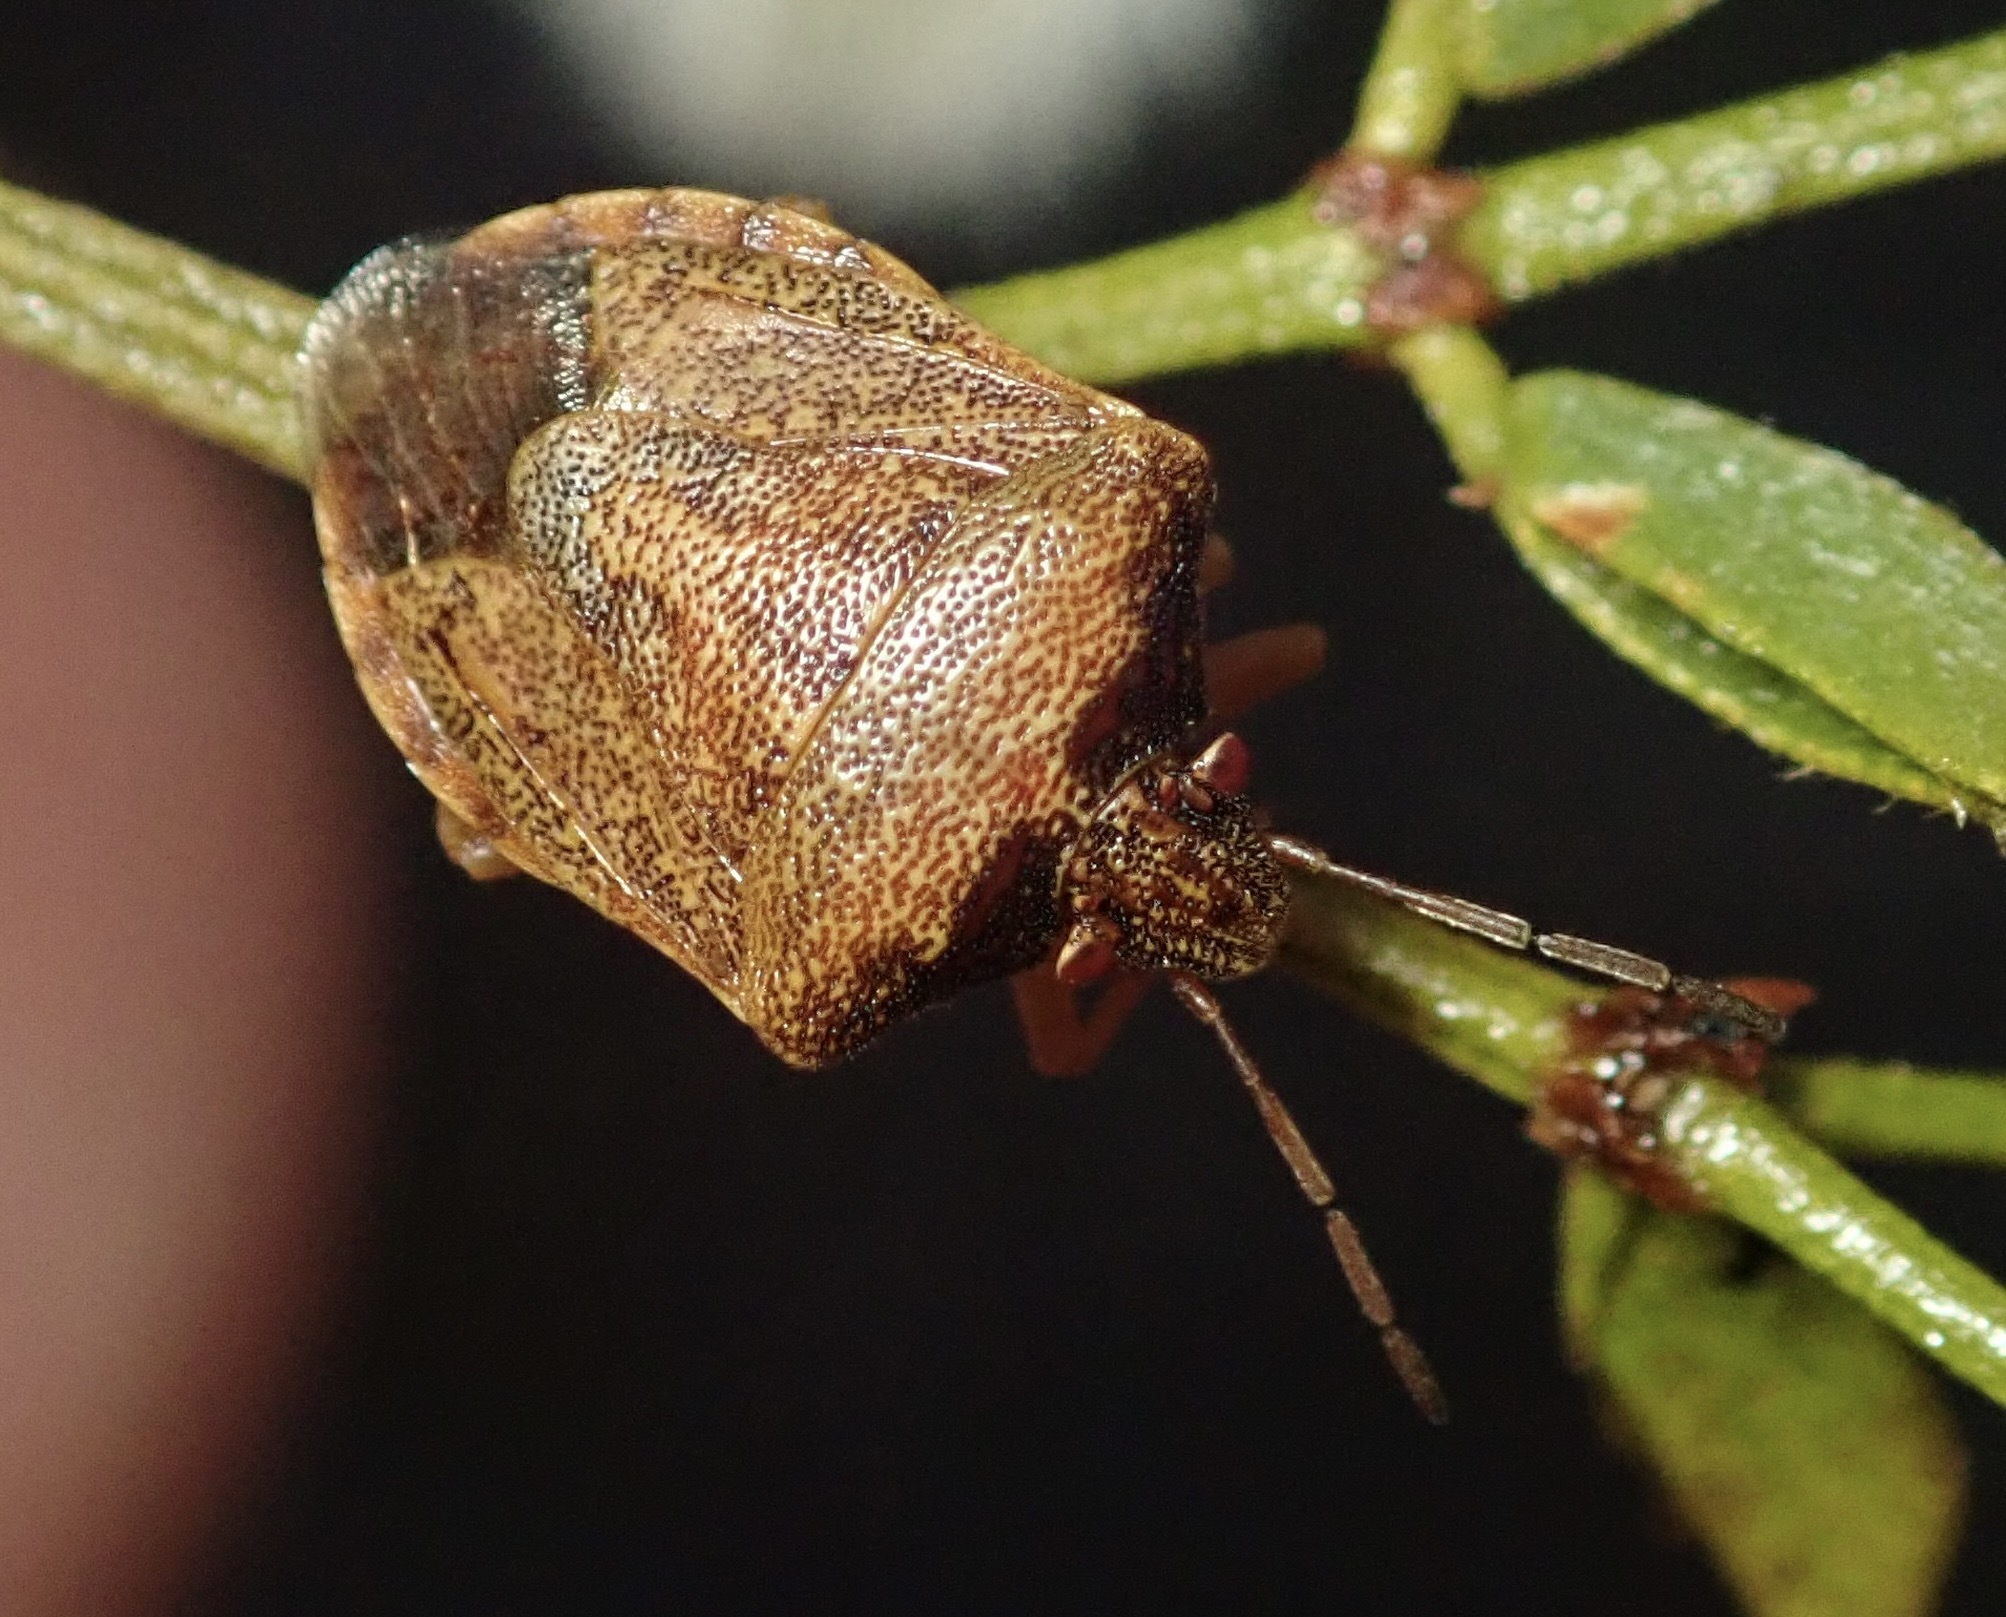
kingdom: Animalia
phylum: Arthropoda
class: Insecta
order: Hemiptera
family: Pentatomidae
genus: Dendrocoris
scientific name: Dendrocoris contaminatus
